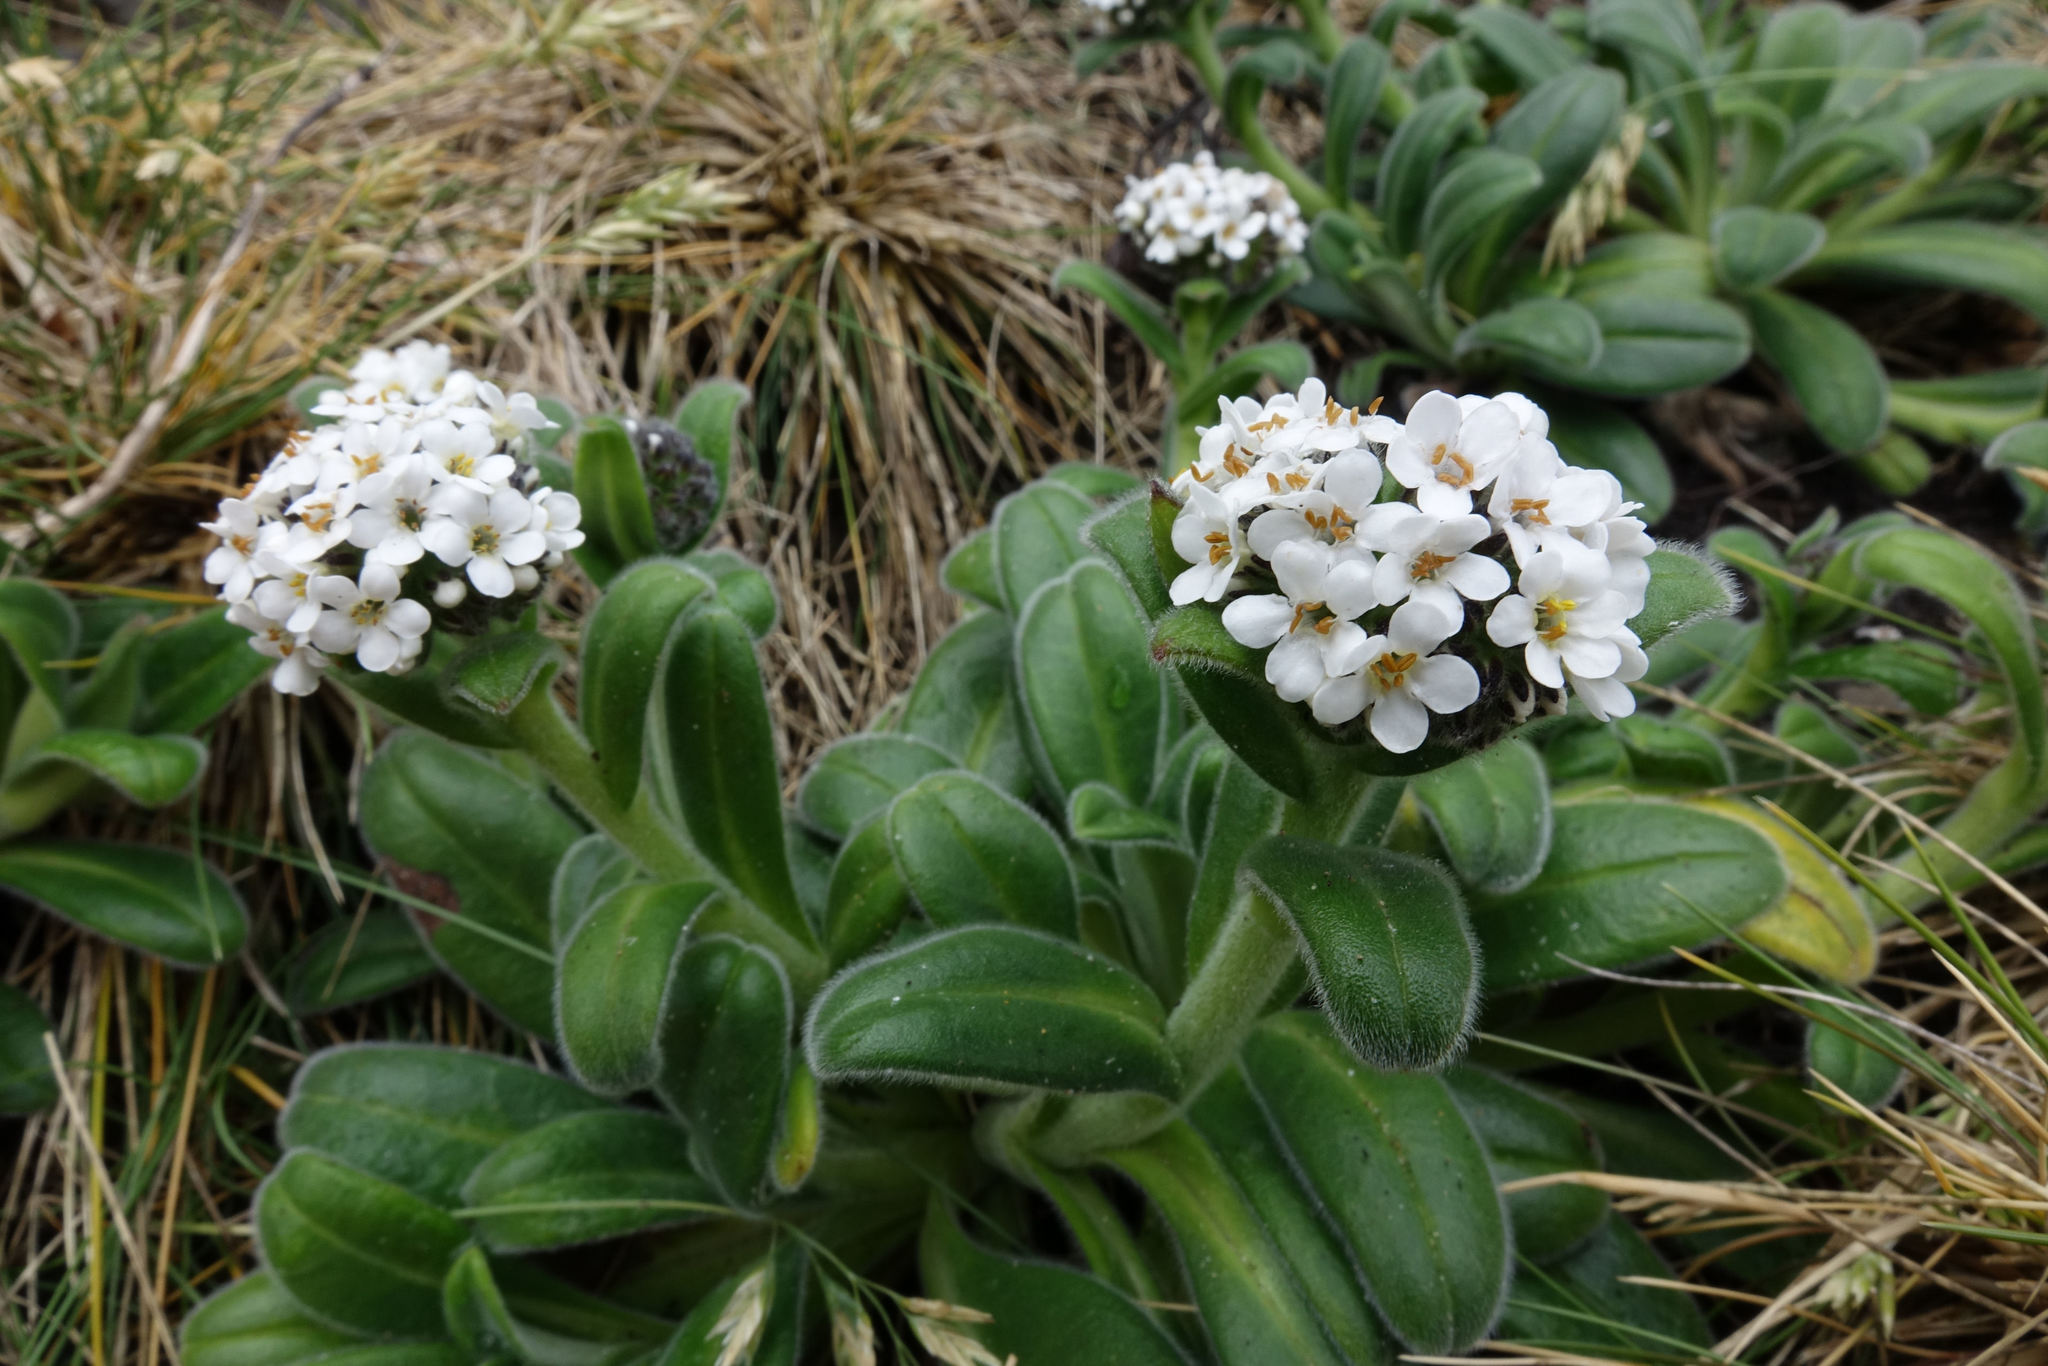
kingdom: Plantae
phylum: Tracheophyta
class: Magnoliopsida
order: Boraginales
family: Boraginaceae
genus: Myosotis
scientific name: Myosotis rakiura
